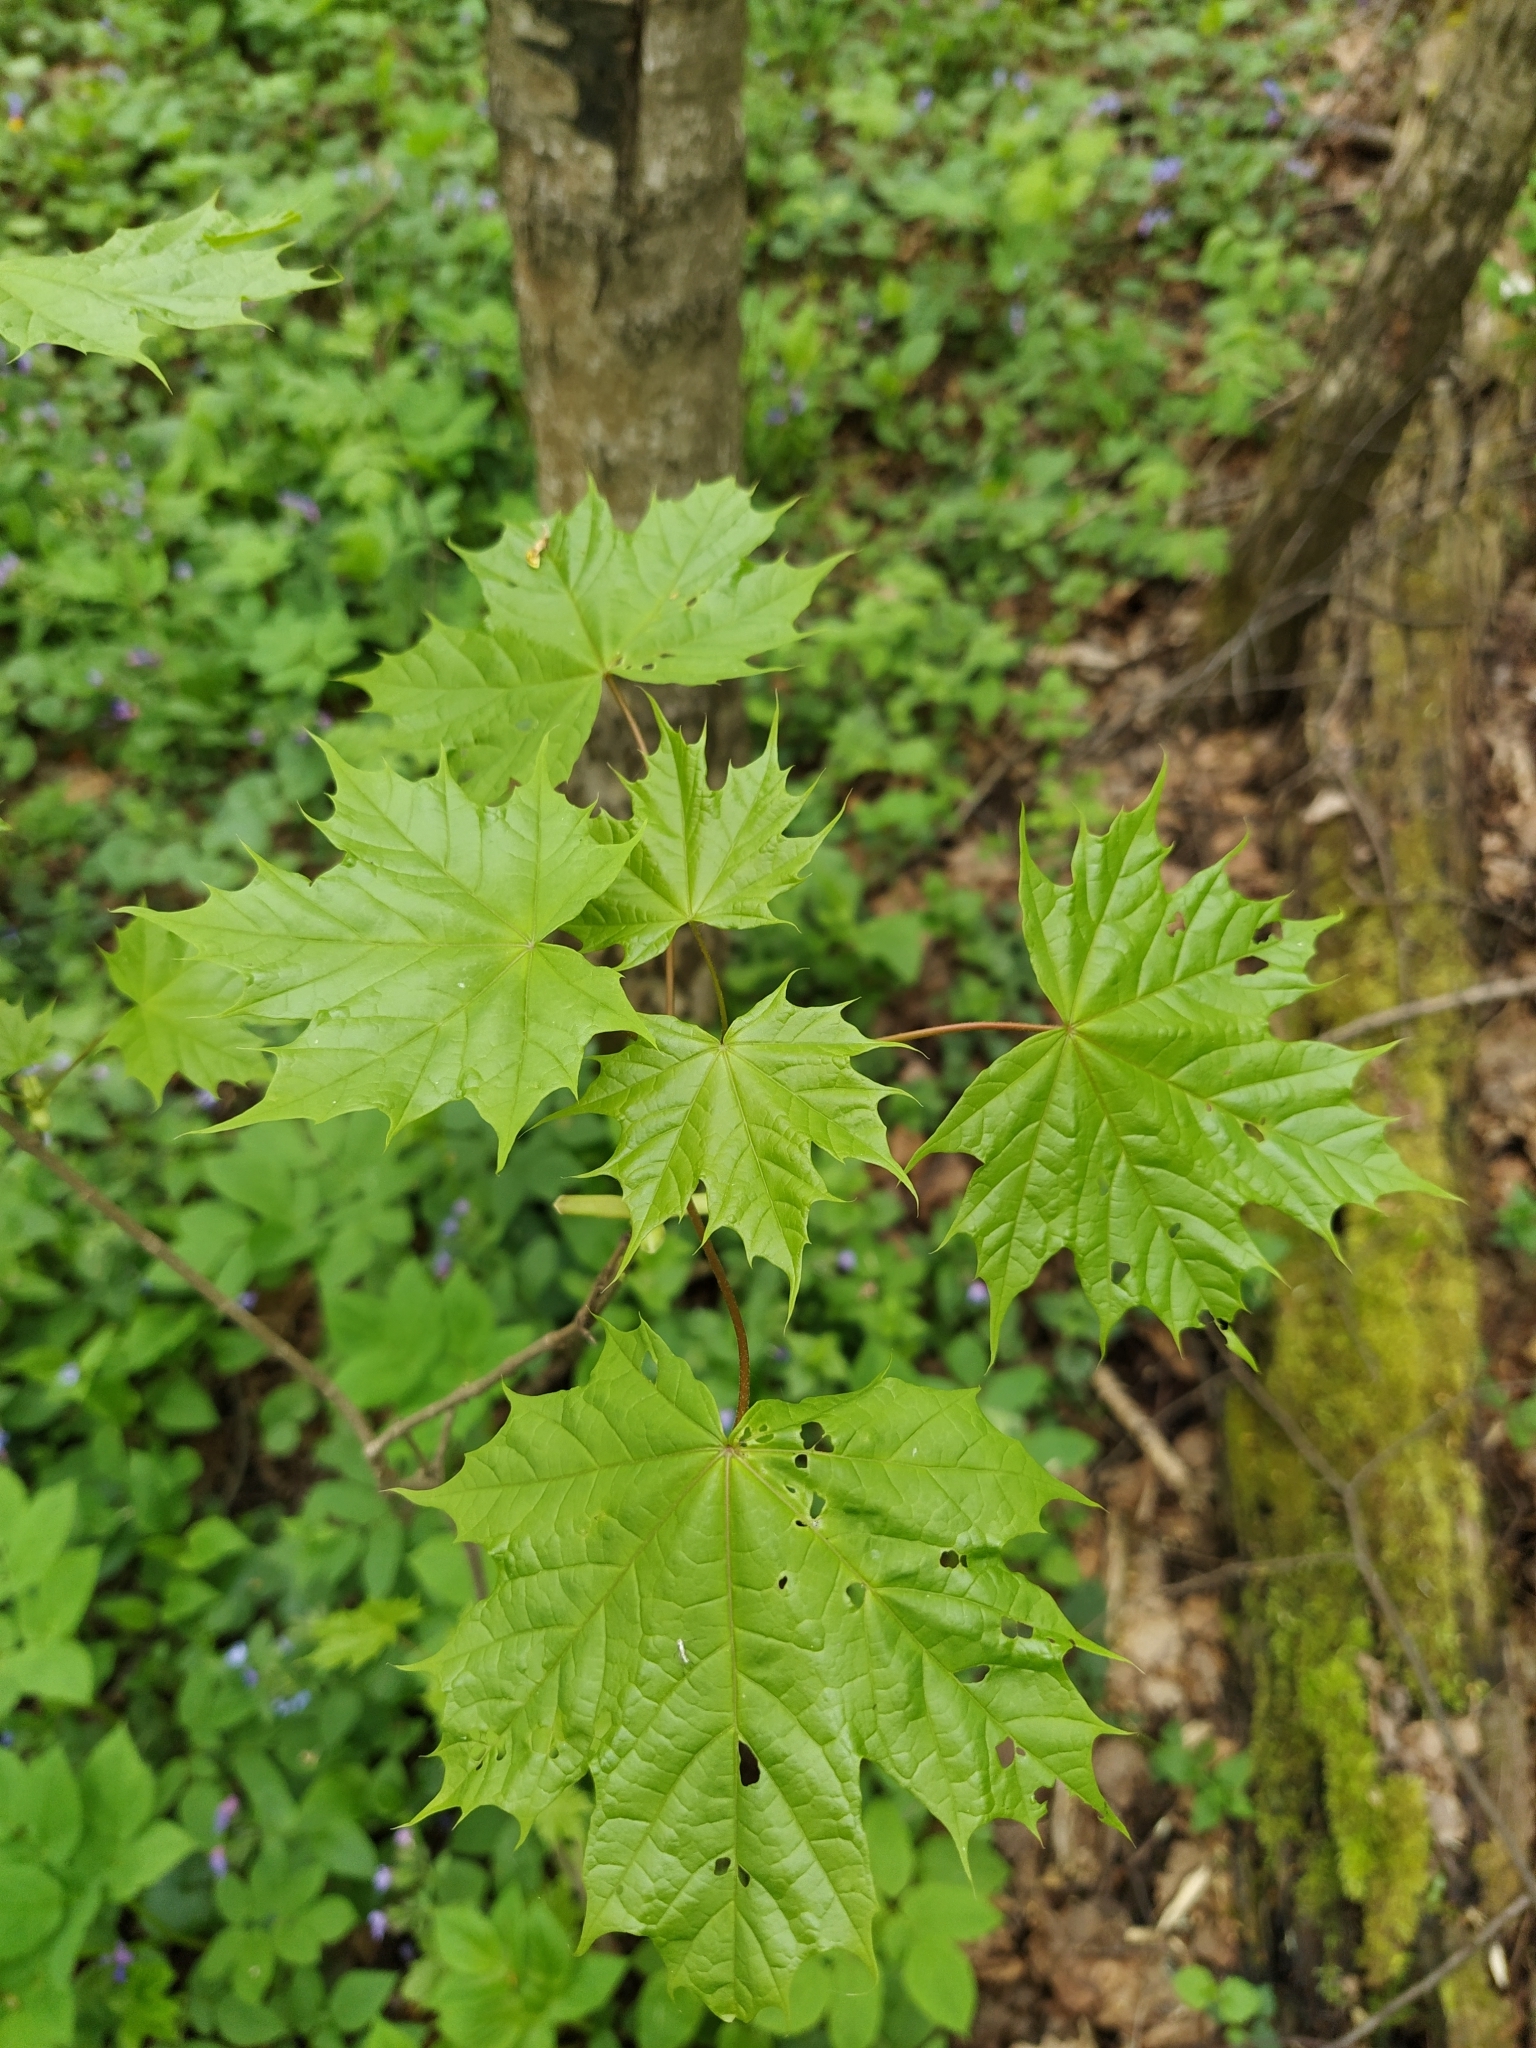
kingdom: Plantae
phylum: Tracheophyta
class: Magnoliopsida
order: Sapindales
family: Sapindaceae
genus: Acer
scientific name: Acer platanoides
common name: Norway maple
